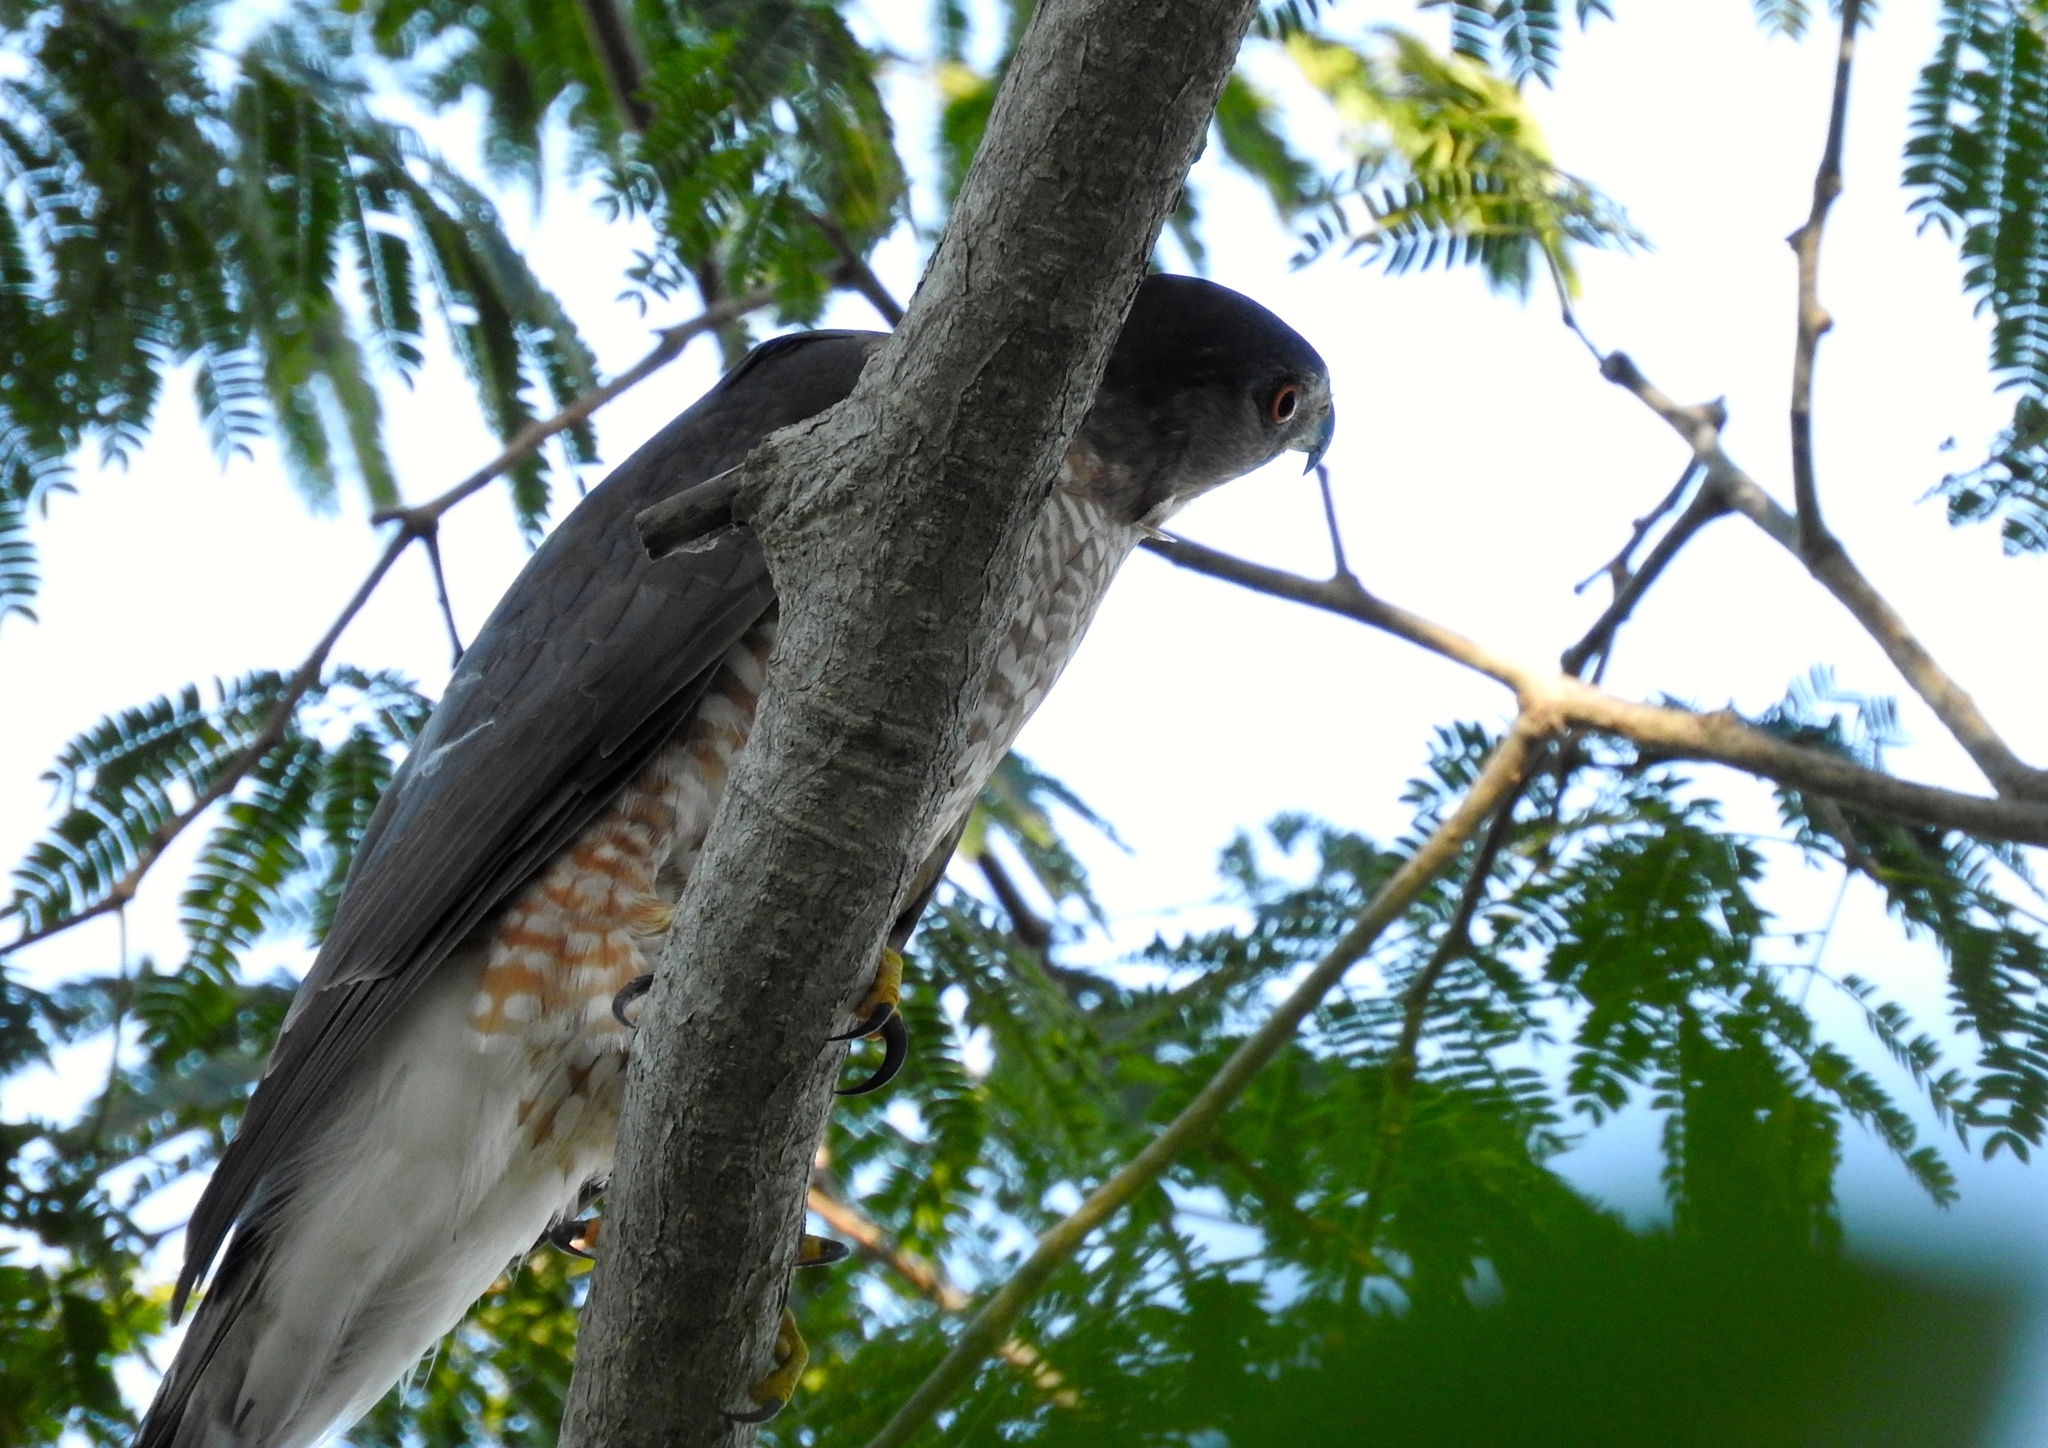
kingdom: Animalia
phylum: Chordata
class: Aves
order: Accipitriformes
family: Accipitridae
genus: Accipiter
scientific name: Accipiter
